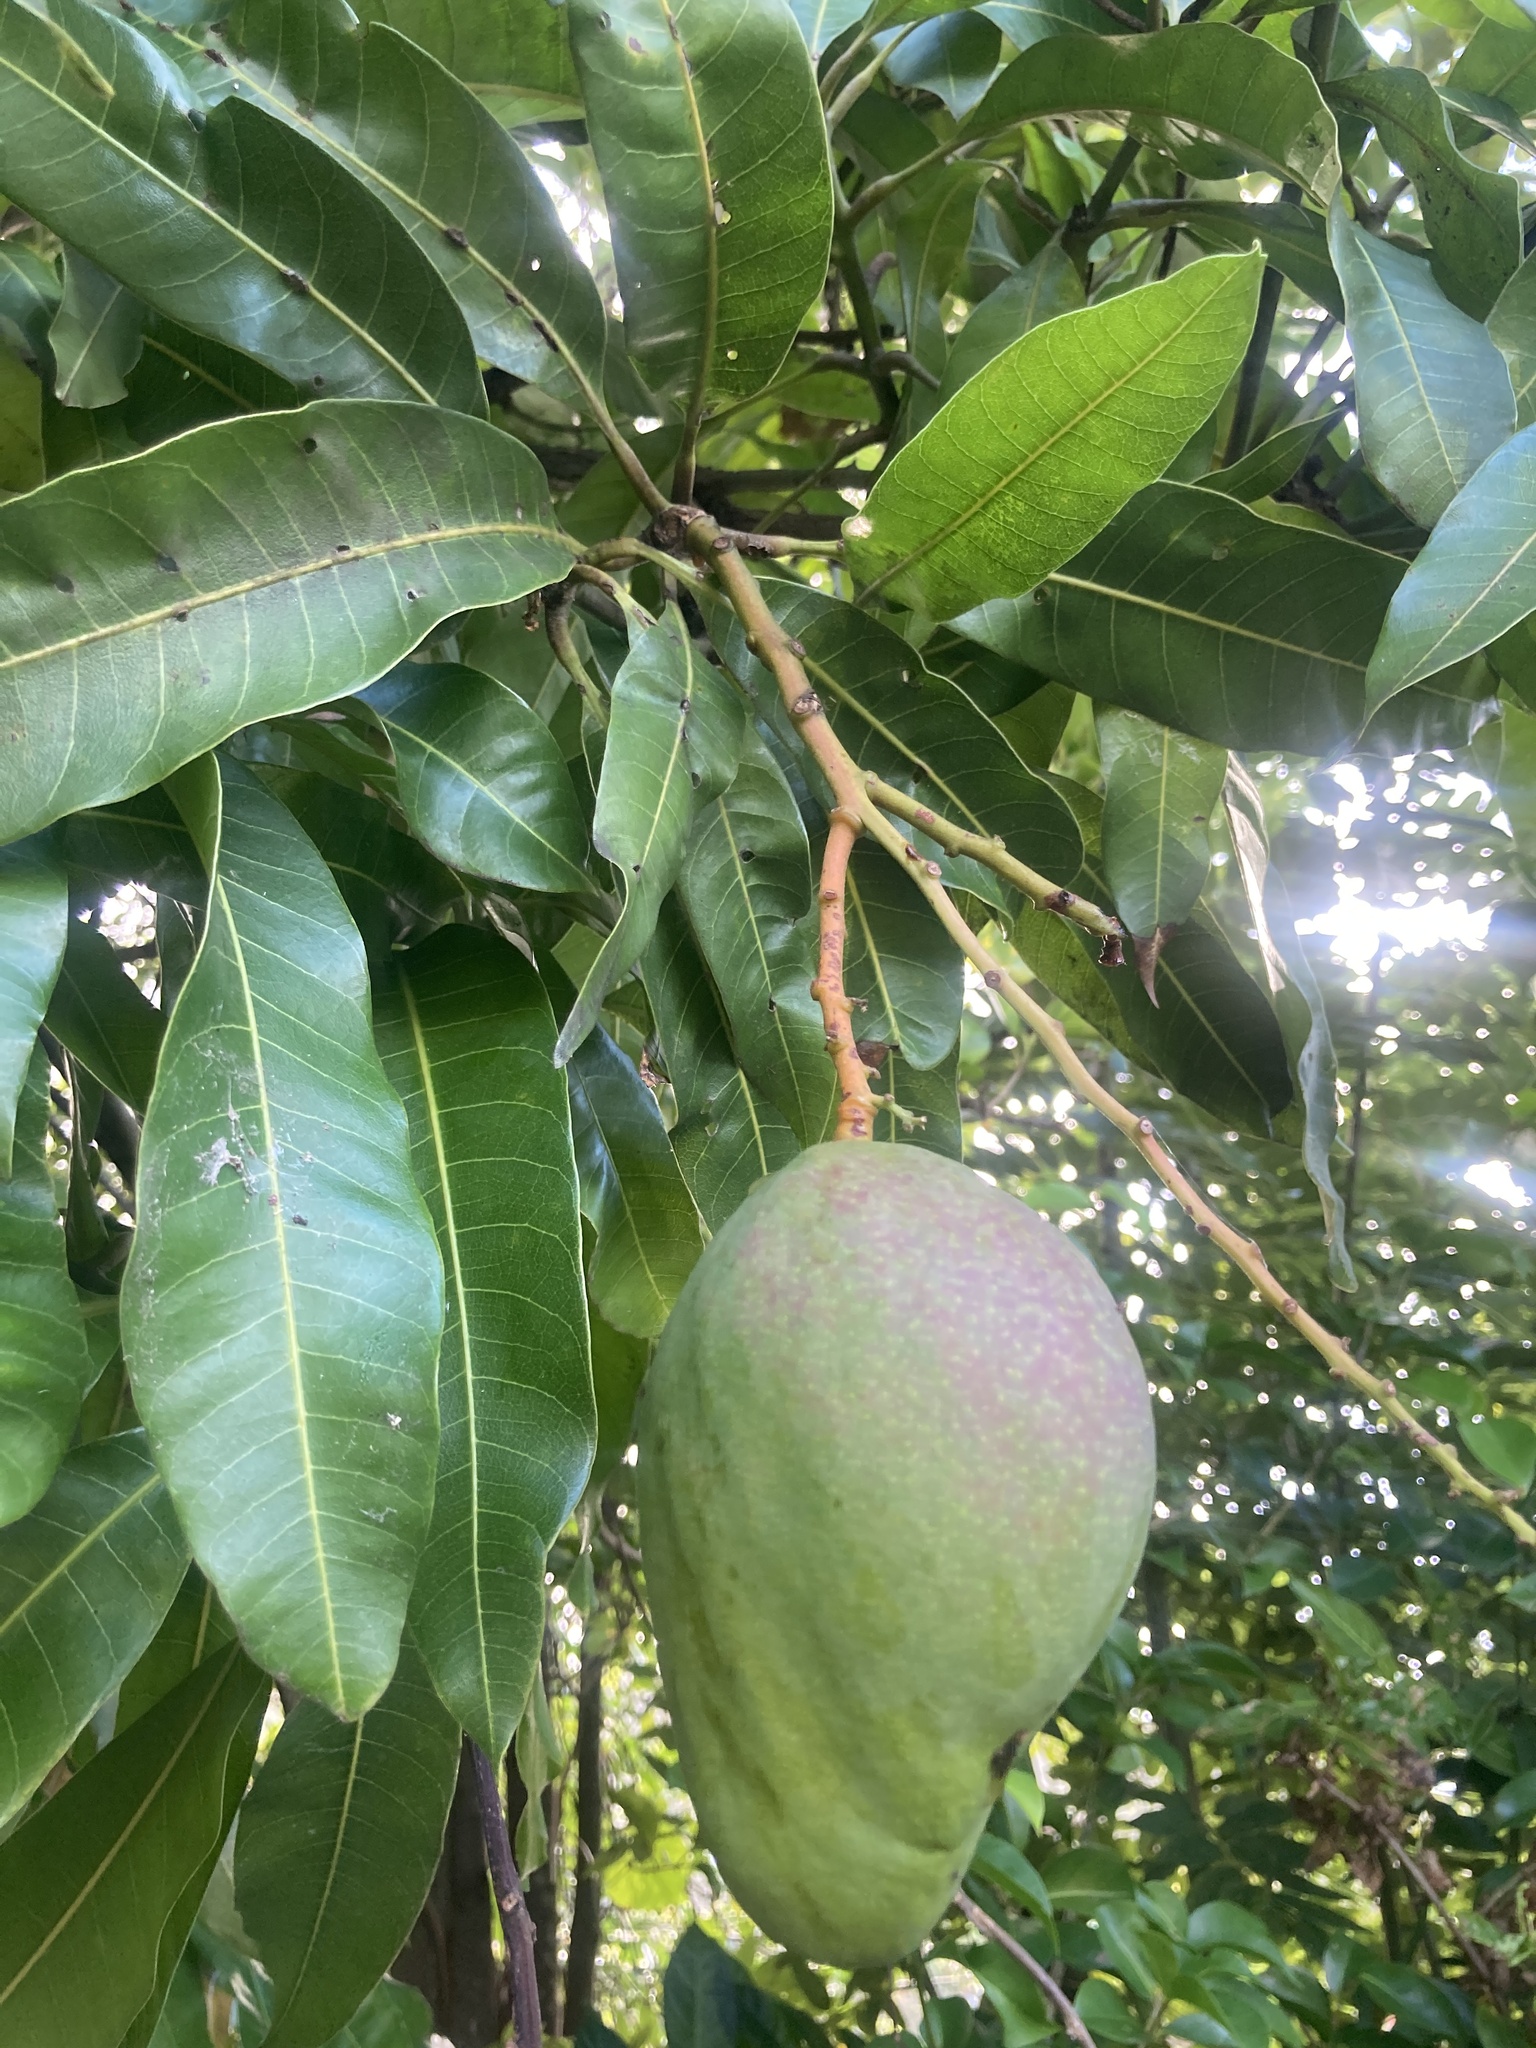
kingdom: Plantae
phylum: Tracheophyta
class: Magnoliopsida
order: Sapindales
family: Anacardiaceae
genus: Mangifera
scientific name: Mangifera indica
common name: Mango
